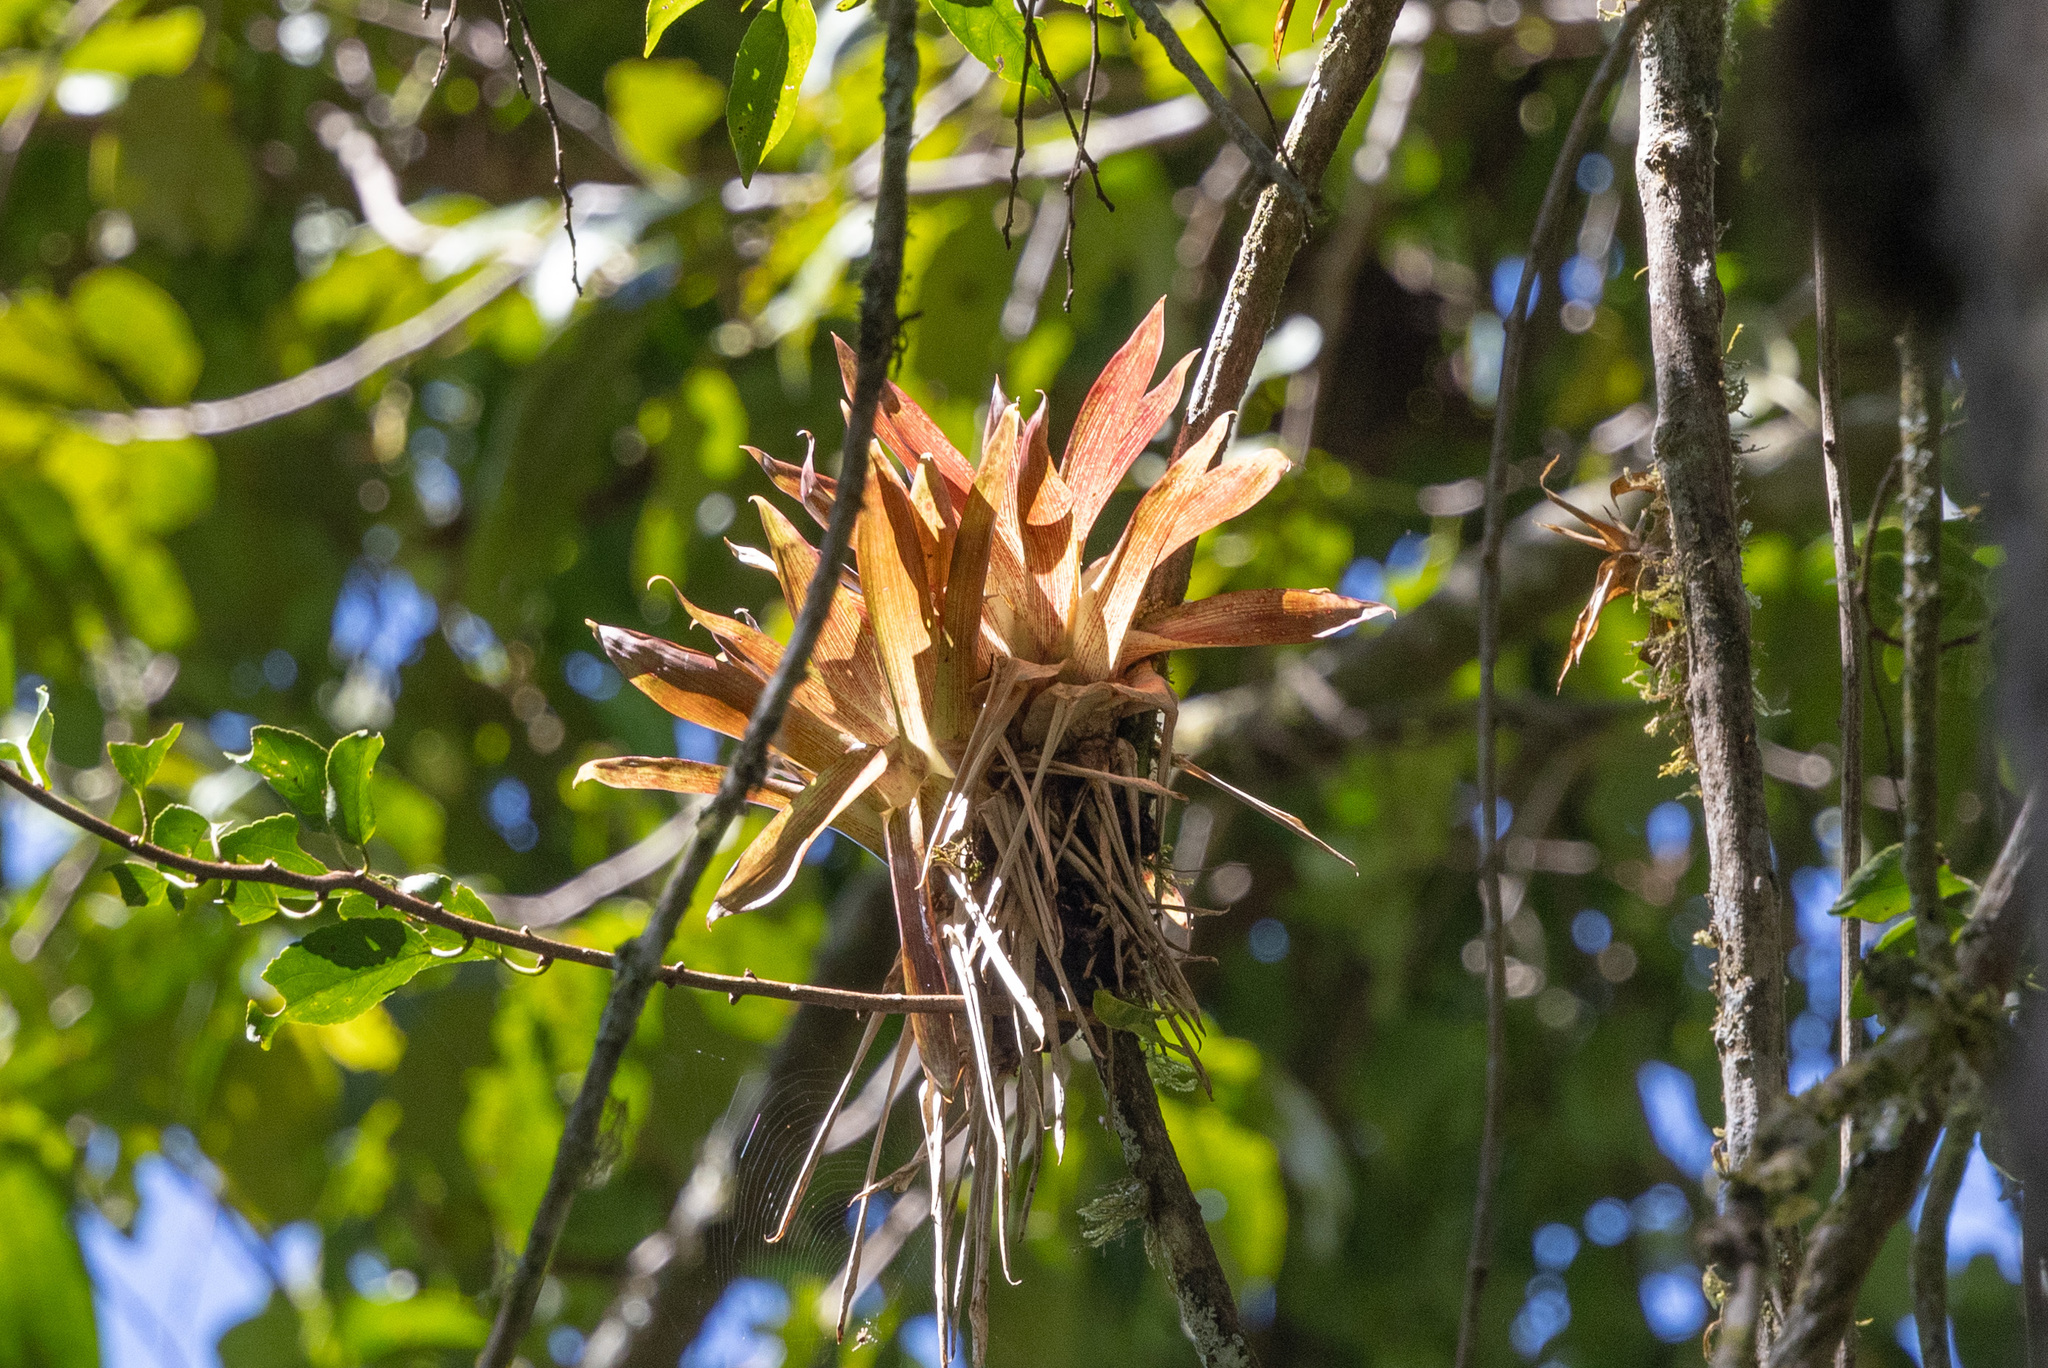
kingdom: Plantae
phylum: Tracheophyta
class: Liliopsida
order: Poales
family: Bromeliaceae
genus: Tillandsia
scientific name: Tillandsia biflora
